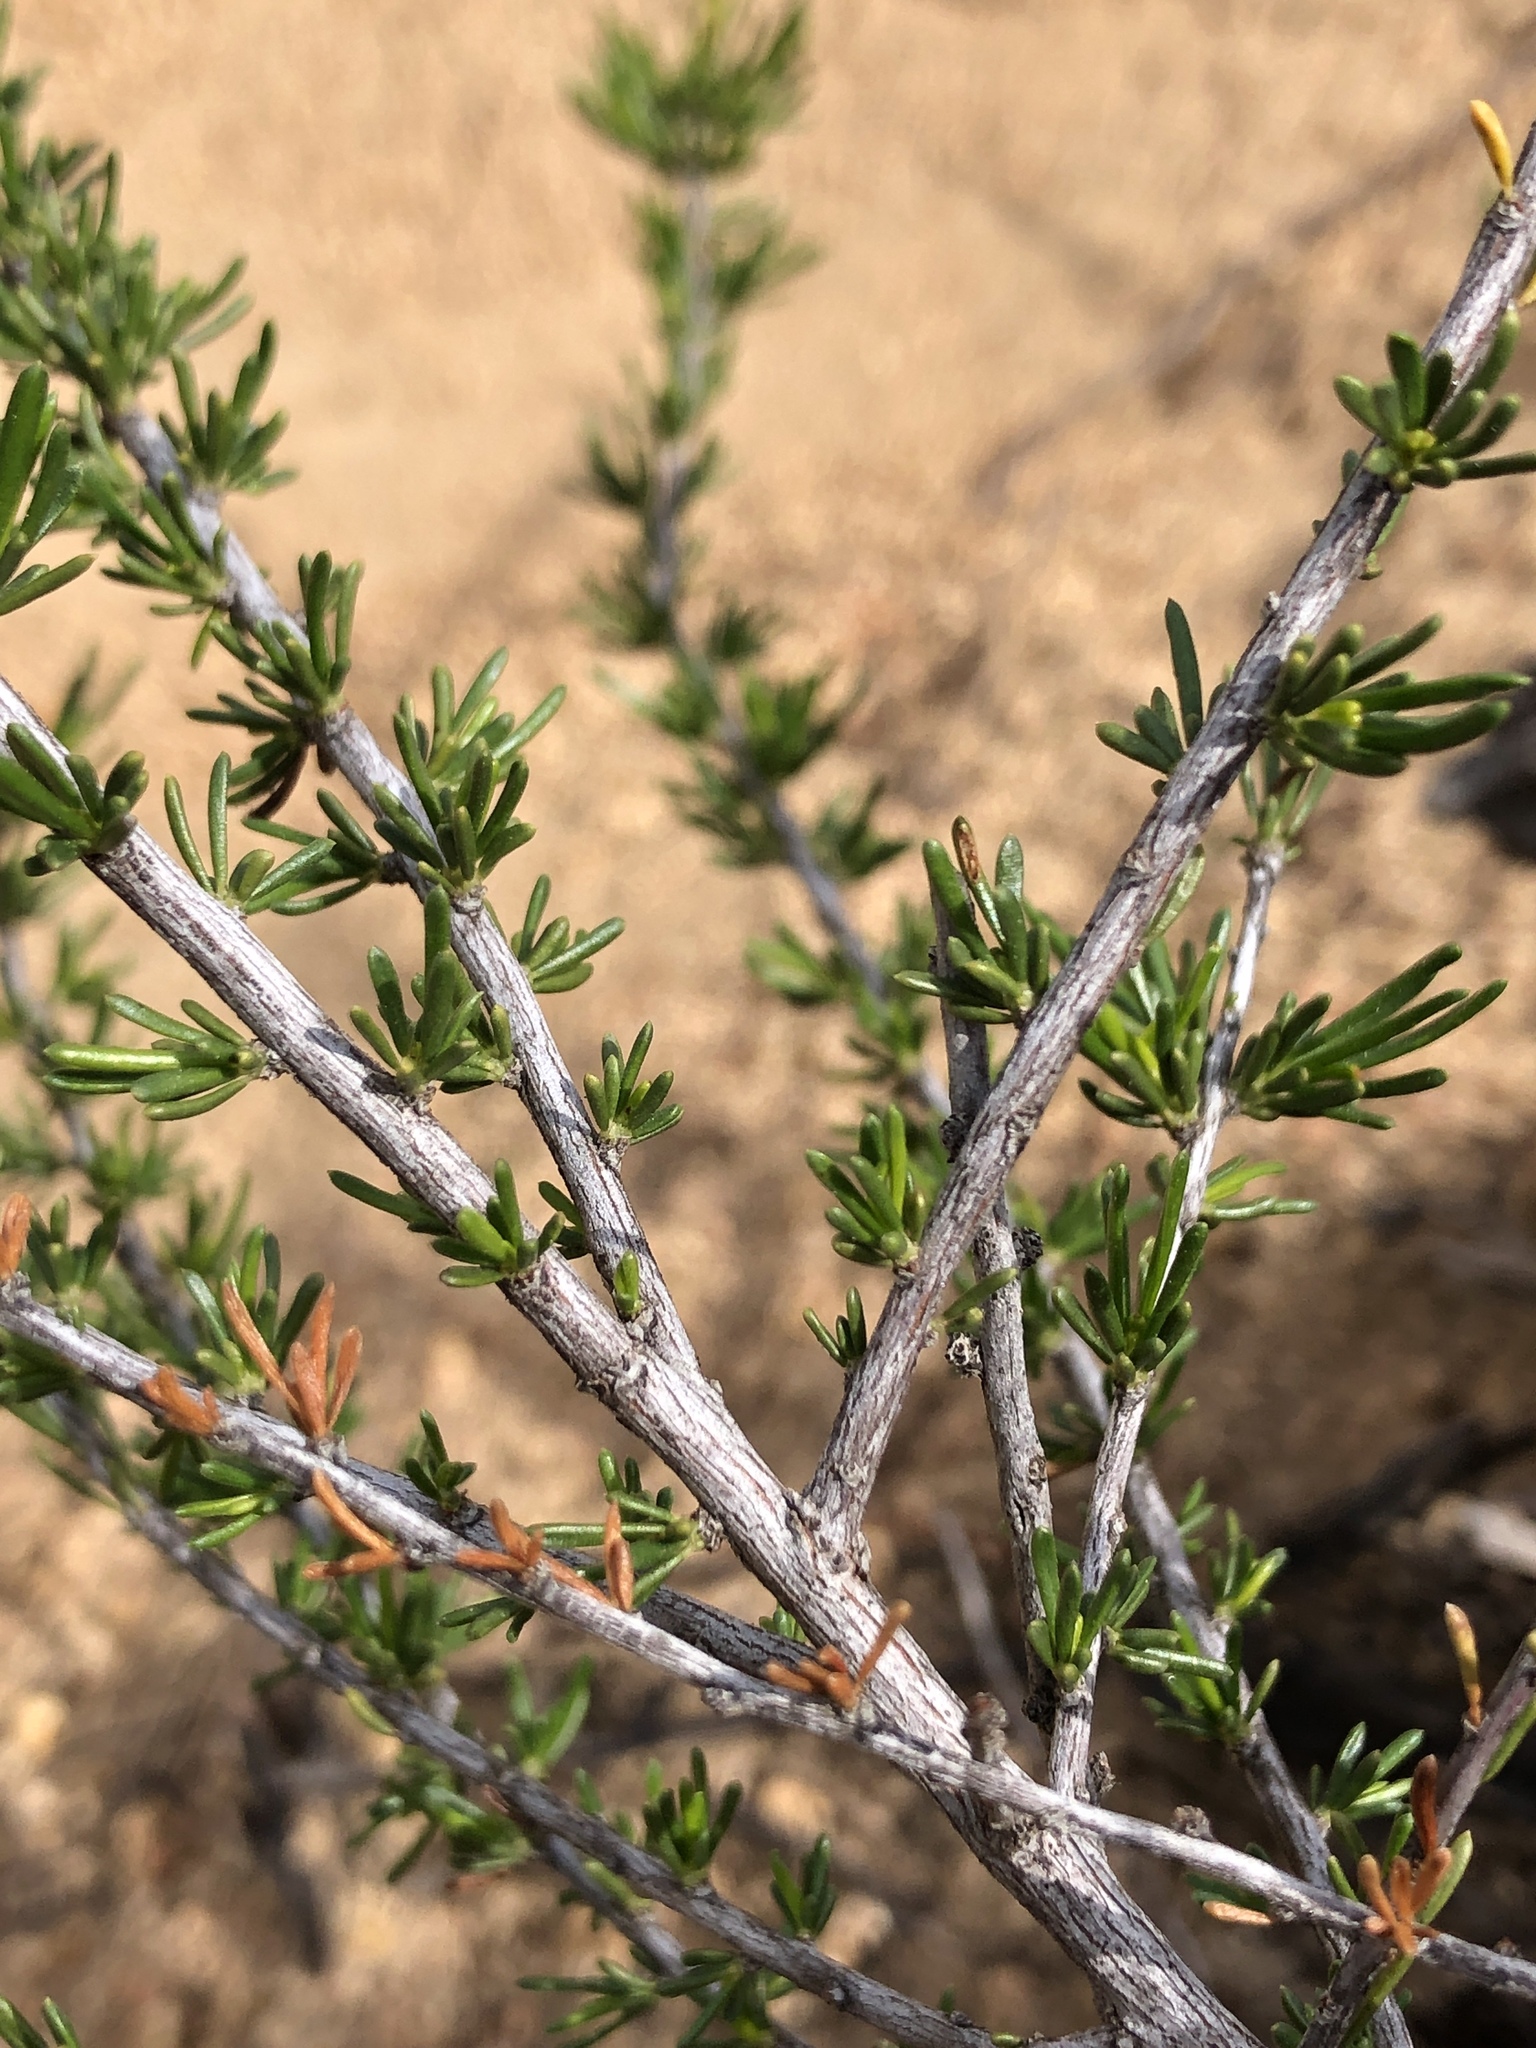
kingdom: Plantae
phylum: Tracheophyta
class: Magnoliopsida
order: Rosales
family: Rosaceae
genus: Adenostoma
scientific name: Adenostoma fasciculatum
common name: Chamise
